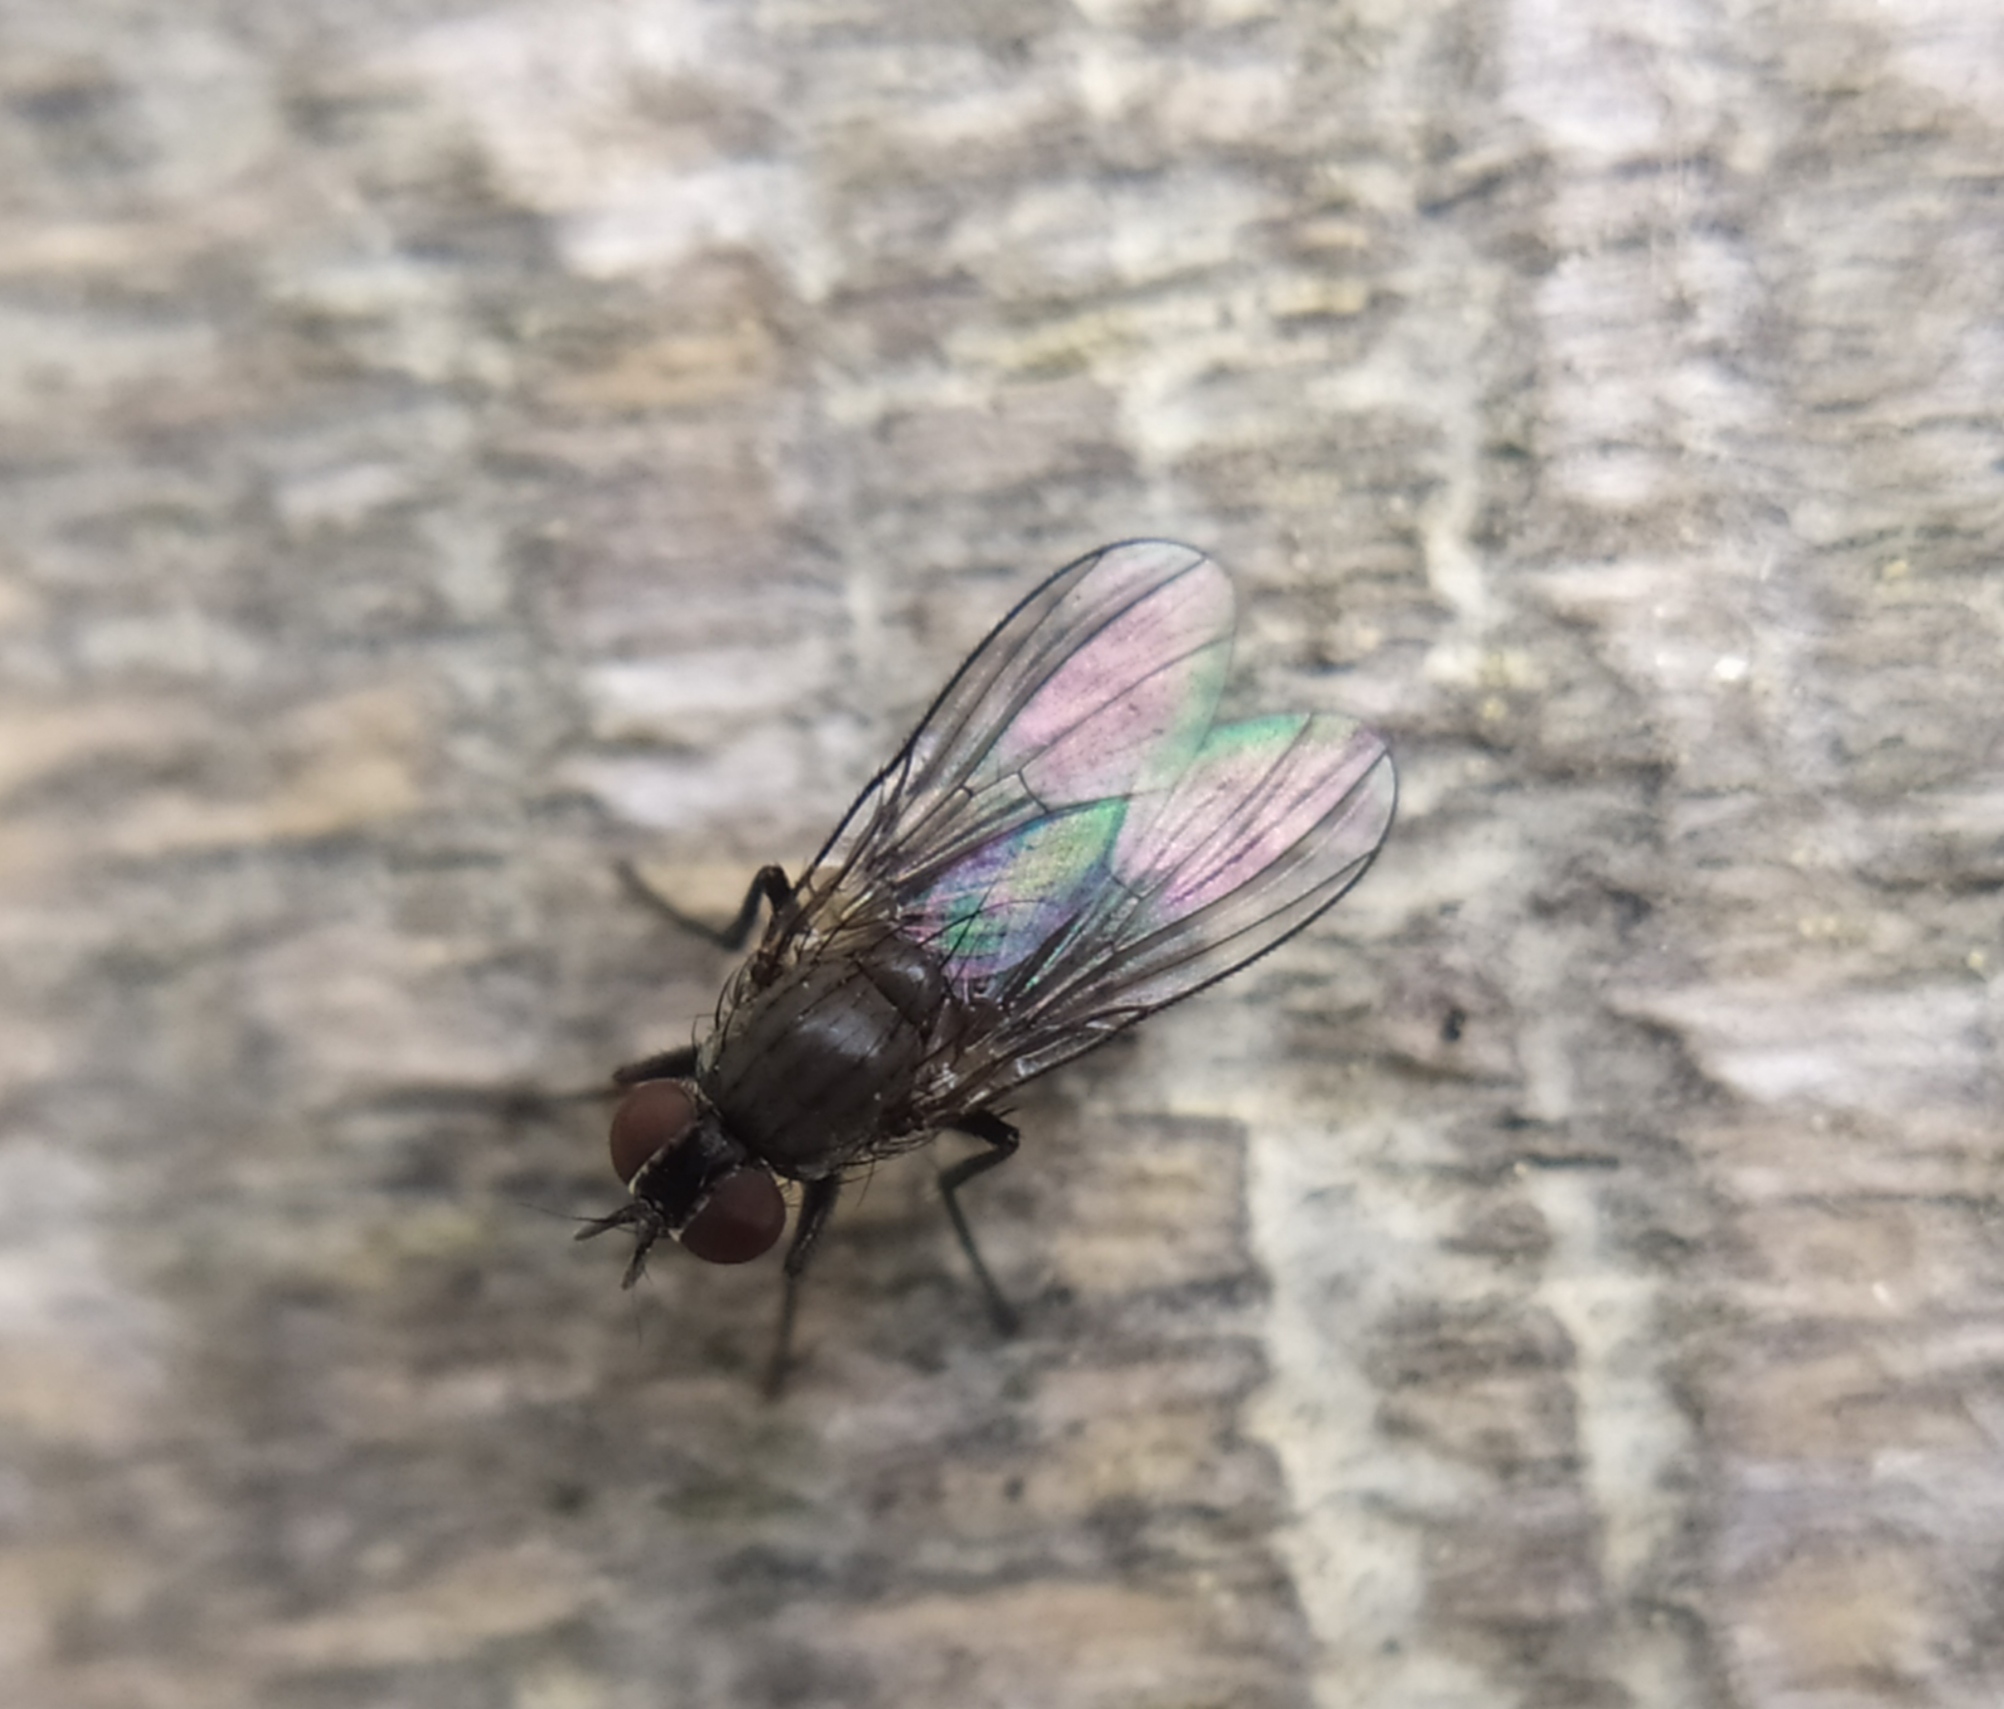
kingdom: Animalia
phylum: Arthropoda
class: Insecta
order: Diptera
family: Muscidae
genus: Coenosia
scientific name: Coenosia agromyzina
